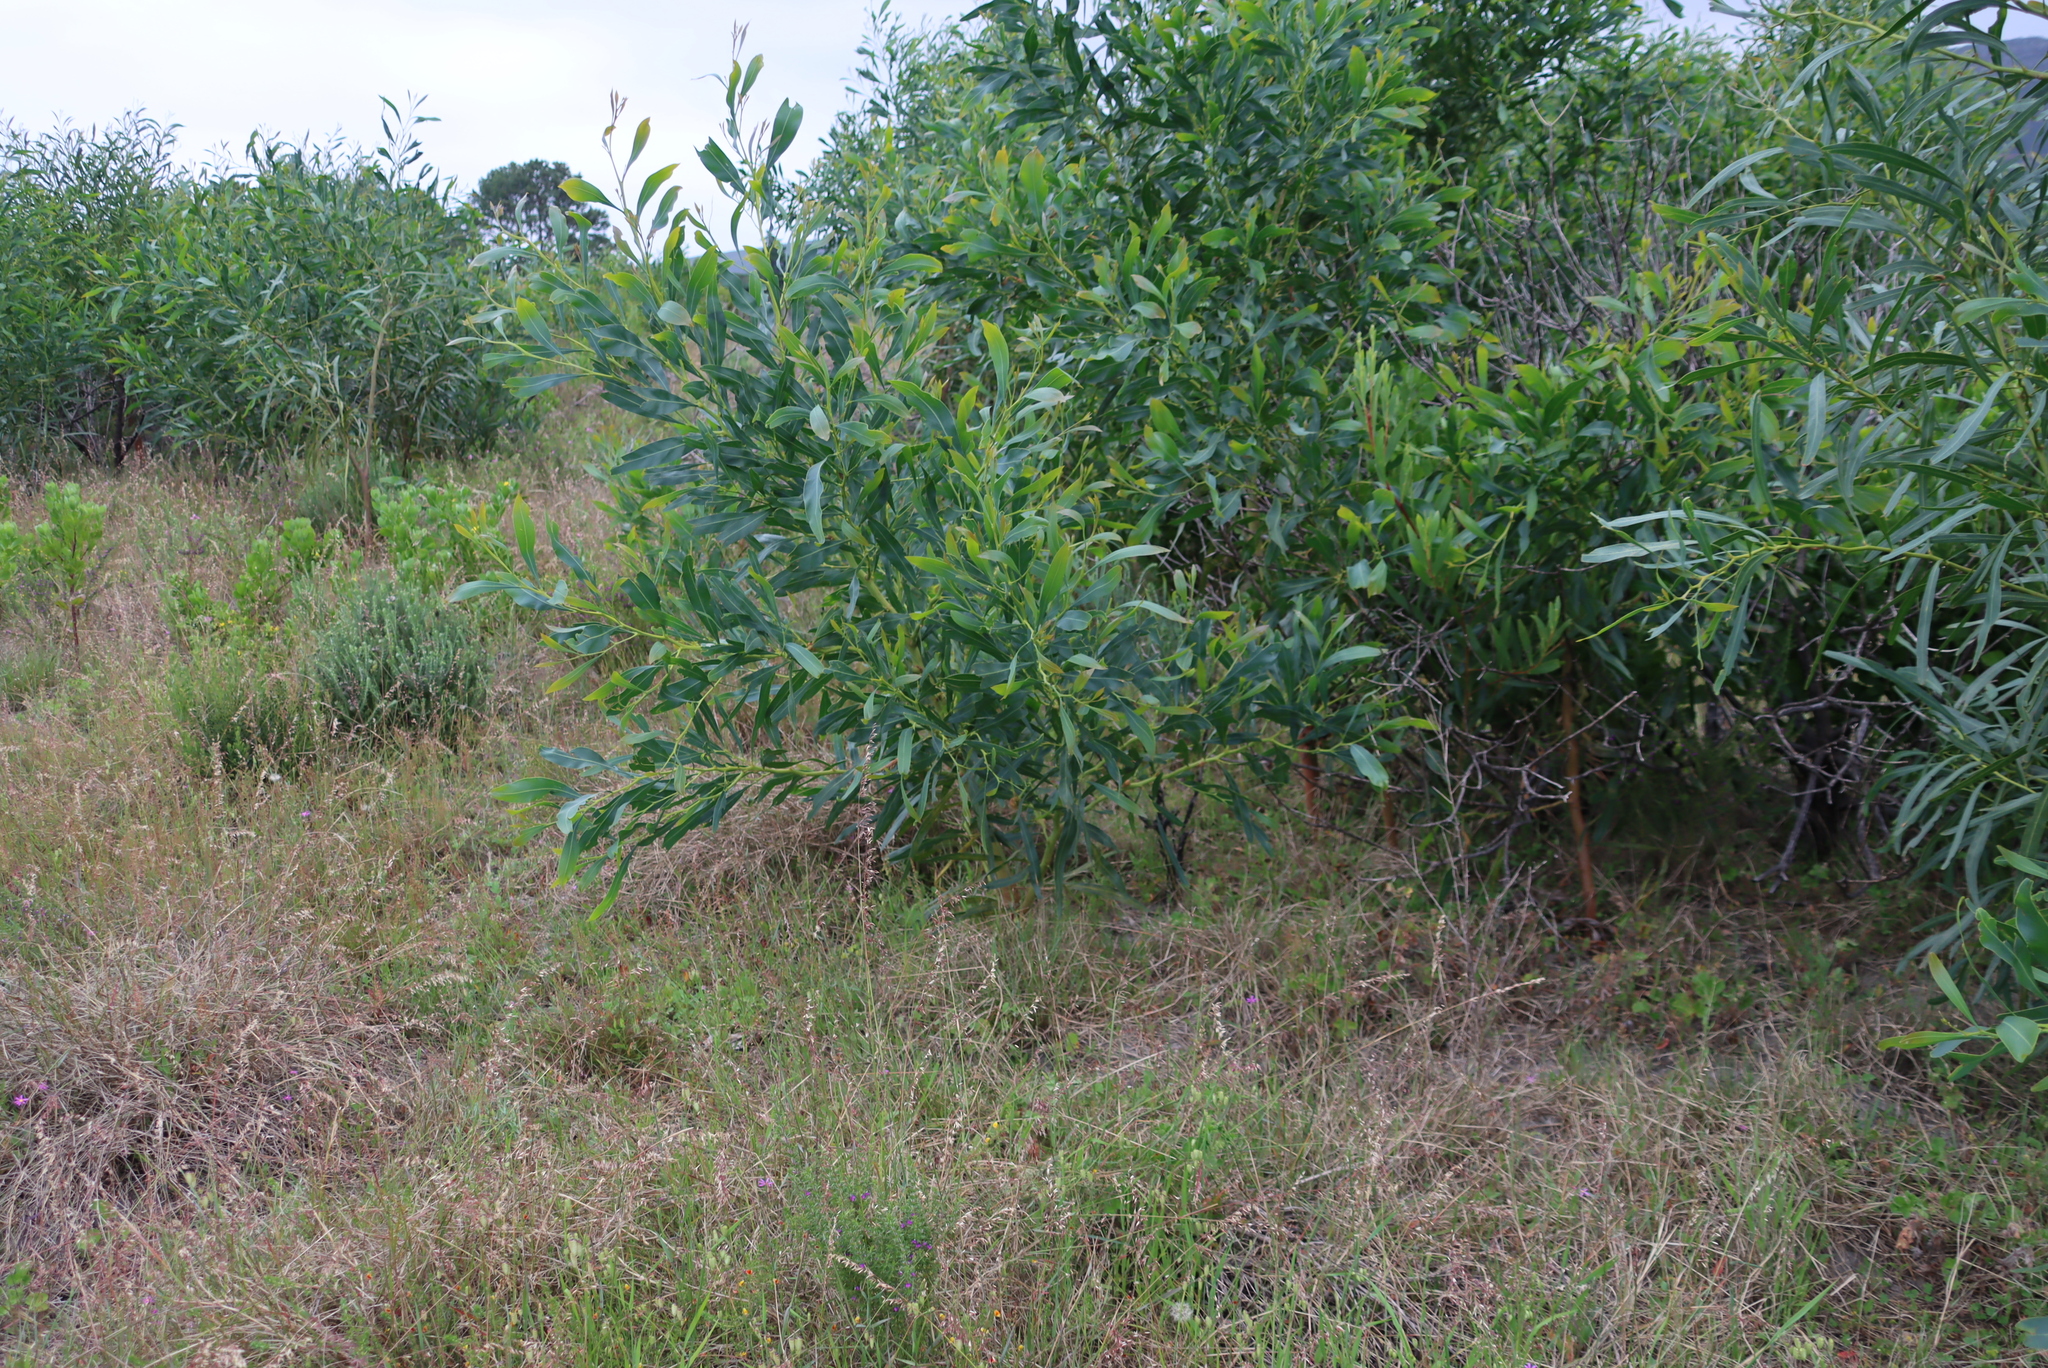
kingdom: Plantae
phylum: Tracheophyta
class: Magnoliopsida
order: Fabales
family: Fabaceae
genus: Acacia
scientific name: Acacia saligna
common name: Orange wattle
